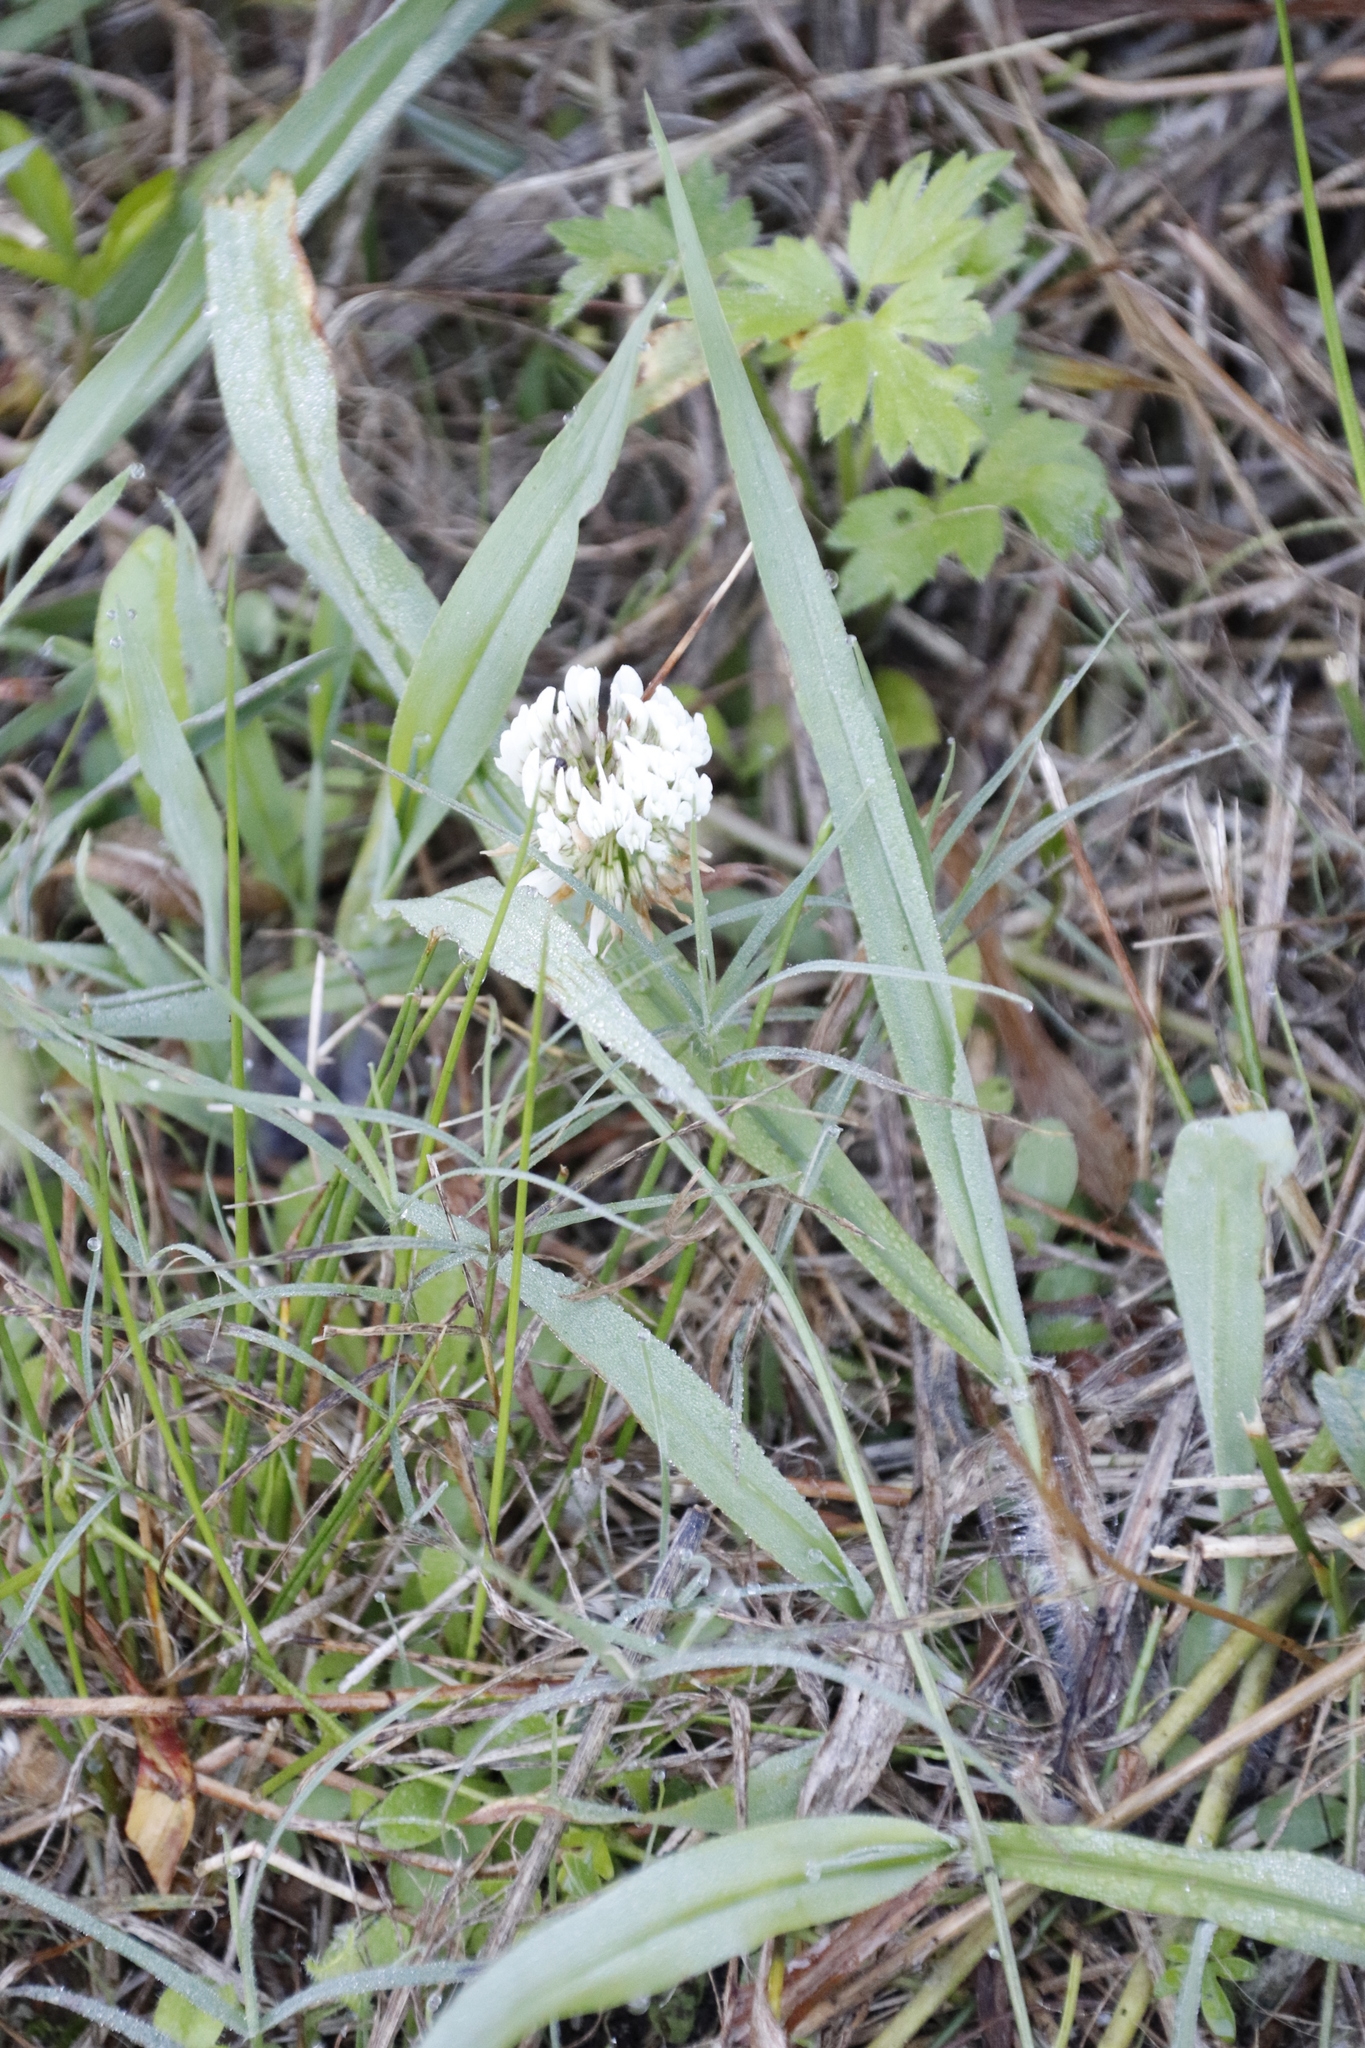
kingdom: Plantae
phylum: Tracheophyta
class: Magnoliopsida
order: Fabales
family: Fabaceae
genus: Trifolium
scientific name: Trifolium repens
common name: White clover
